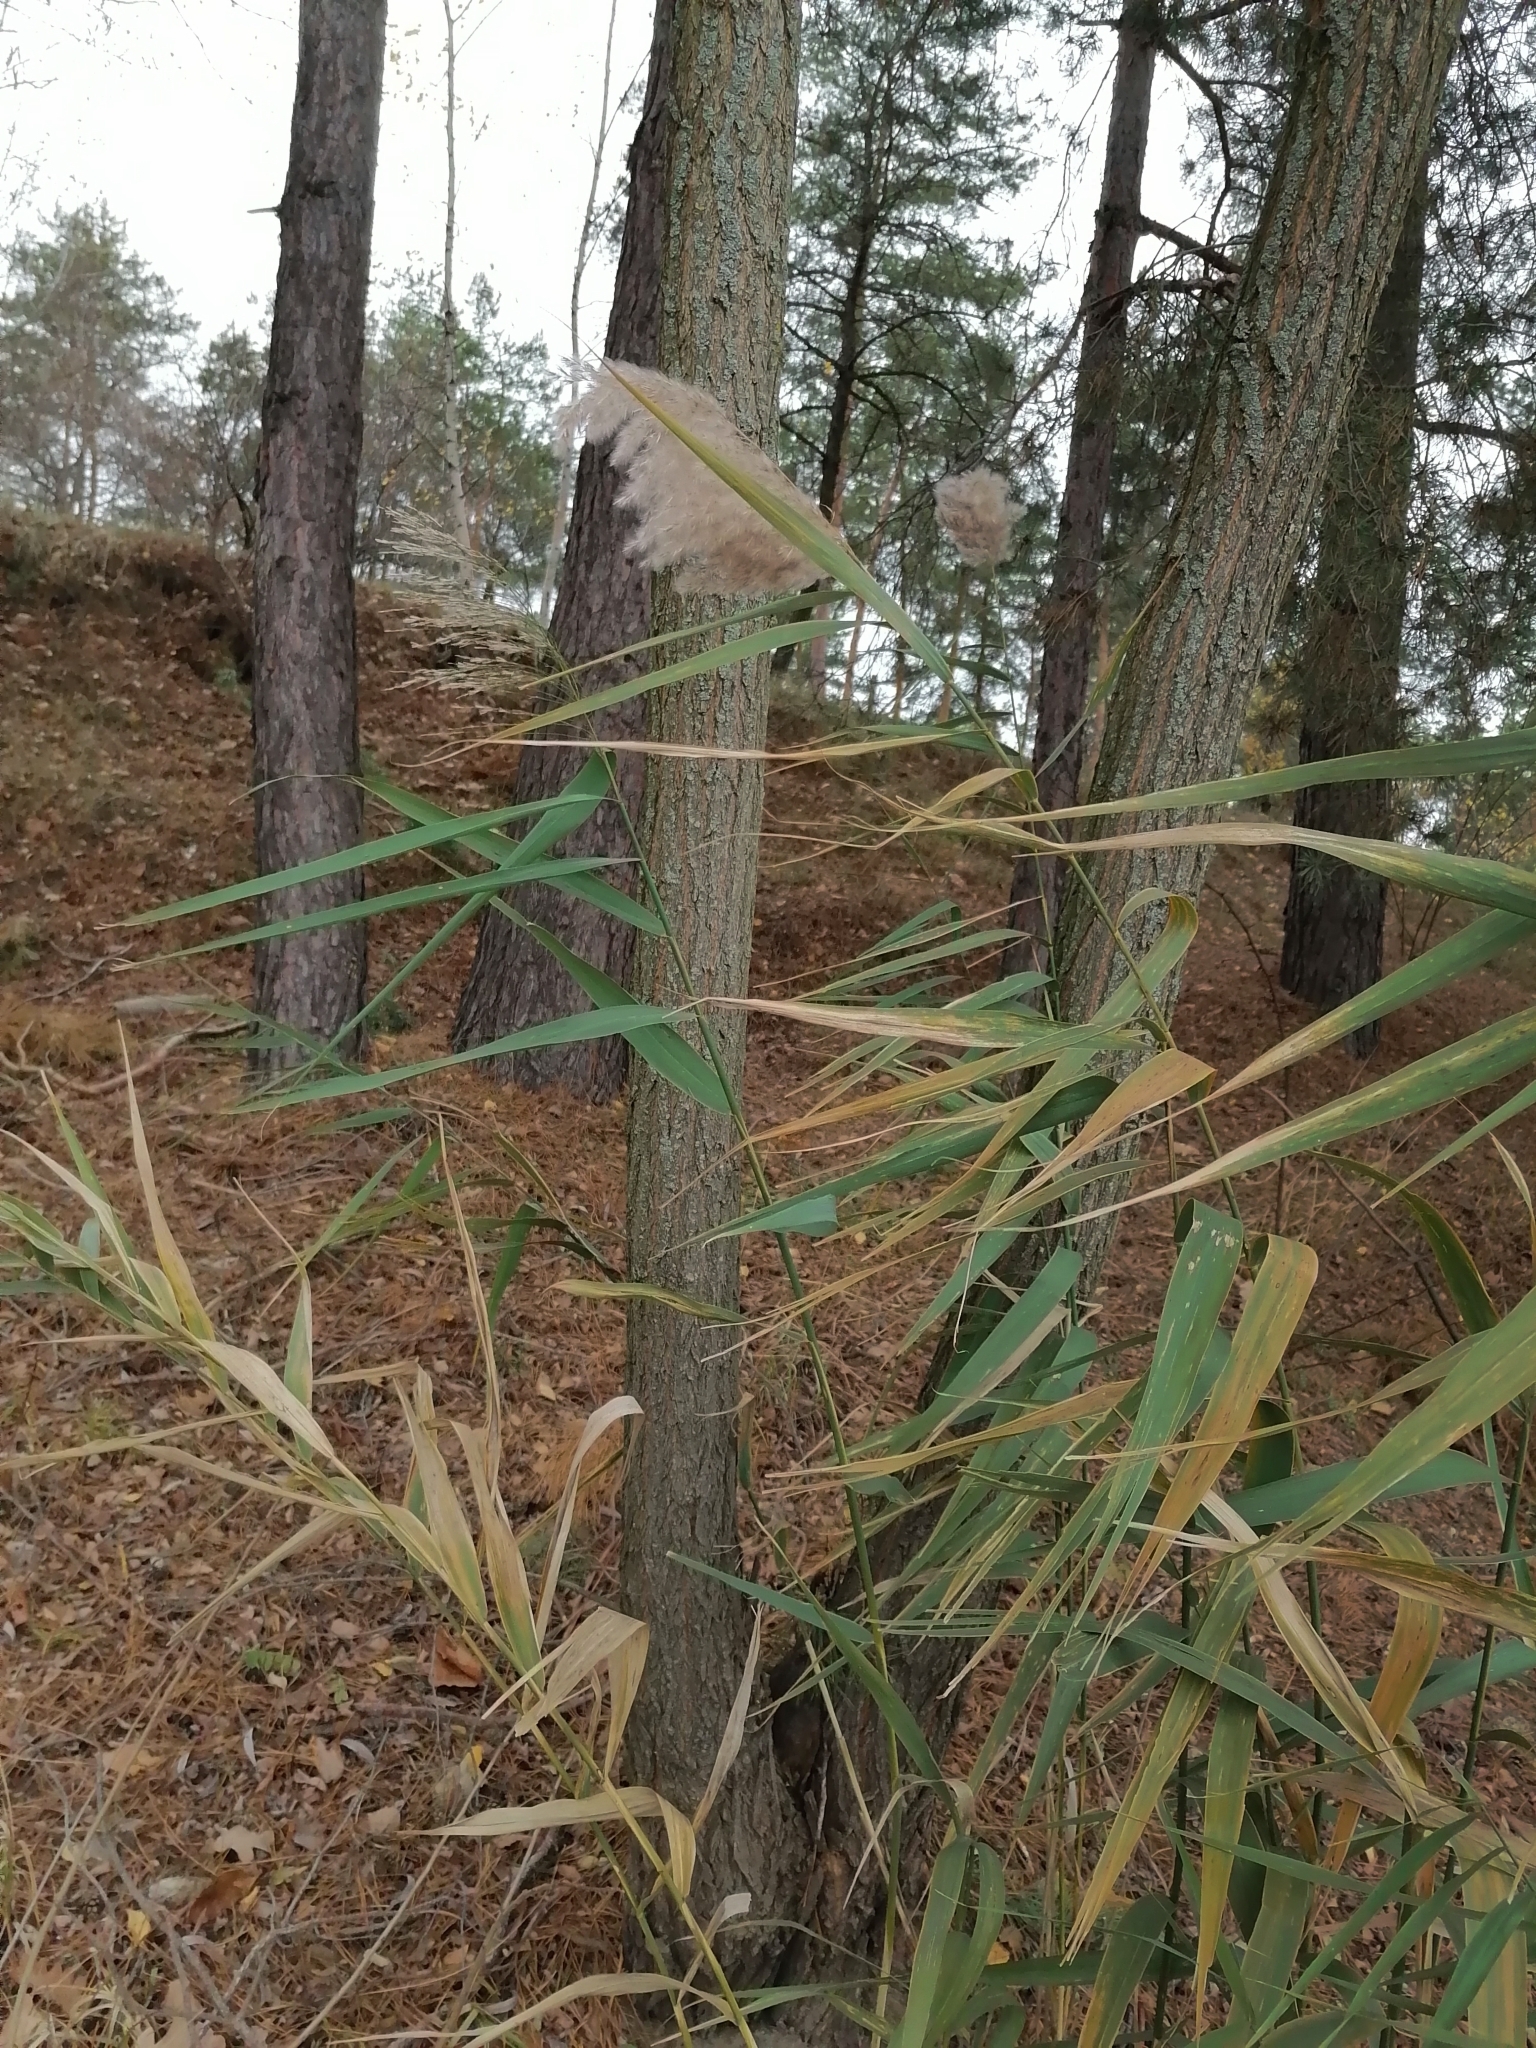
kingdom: Plantae
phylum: Tracheophyta
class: Liliopsida
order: Poales
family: Poaceae
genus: Phragmites
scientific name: Phragmites australis
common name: Common reed
